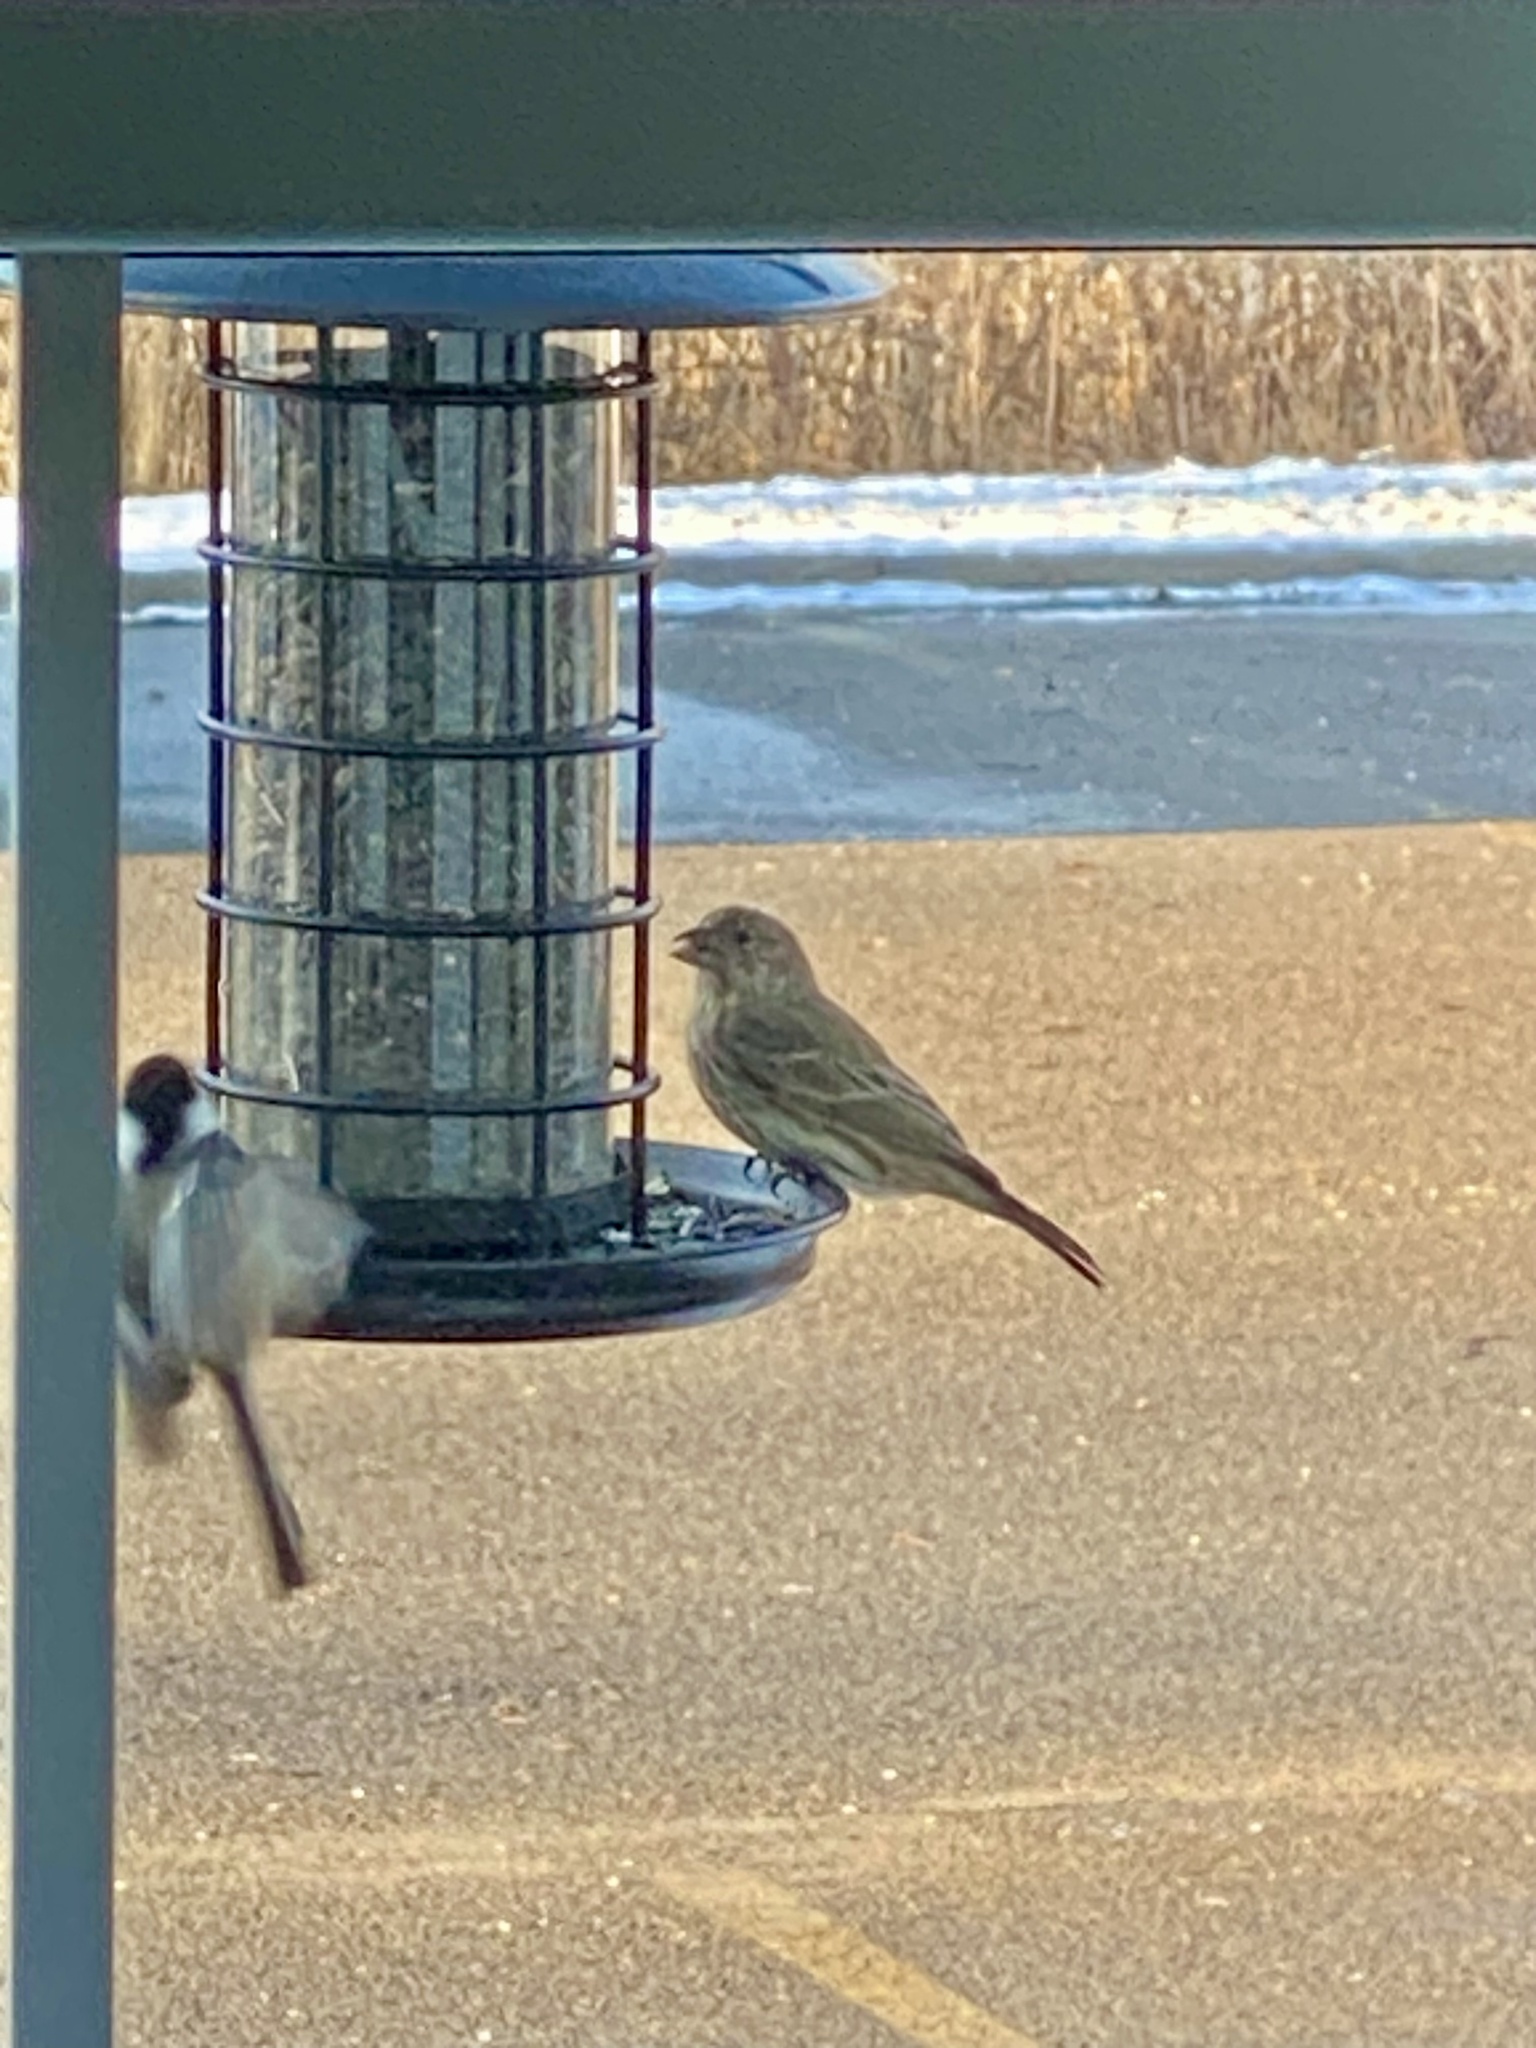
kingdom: Animalia
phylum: Chordata
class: Aves
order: Passeriformes
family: Fringillidae
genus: Haemorhous
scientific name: Haemorhous mexicanus
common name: House finch
